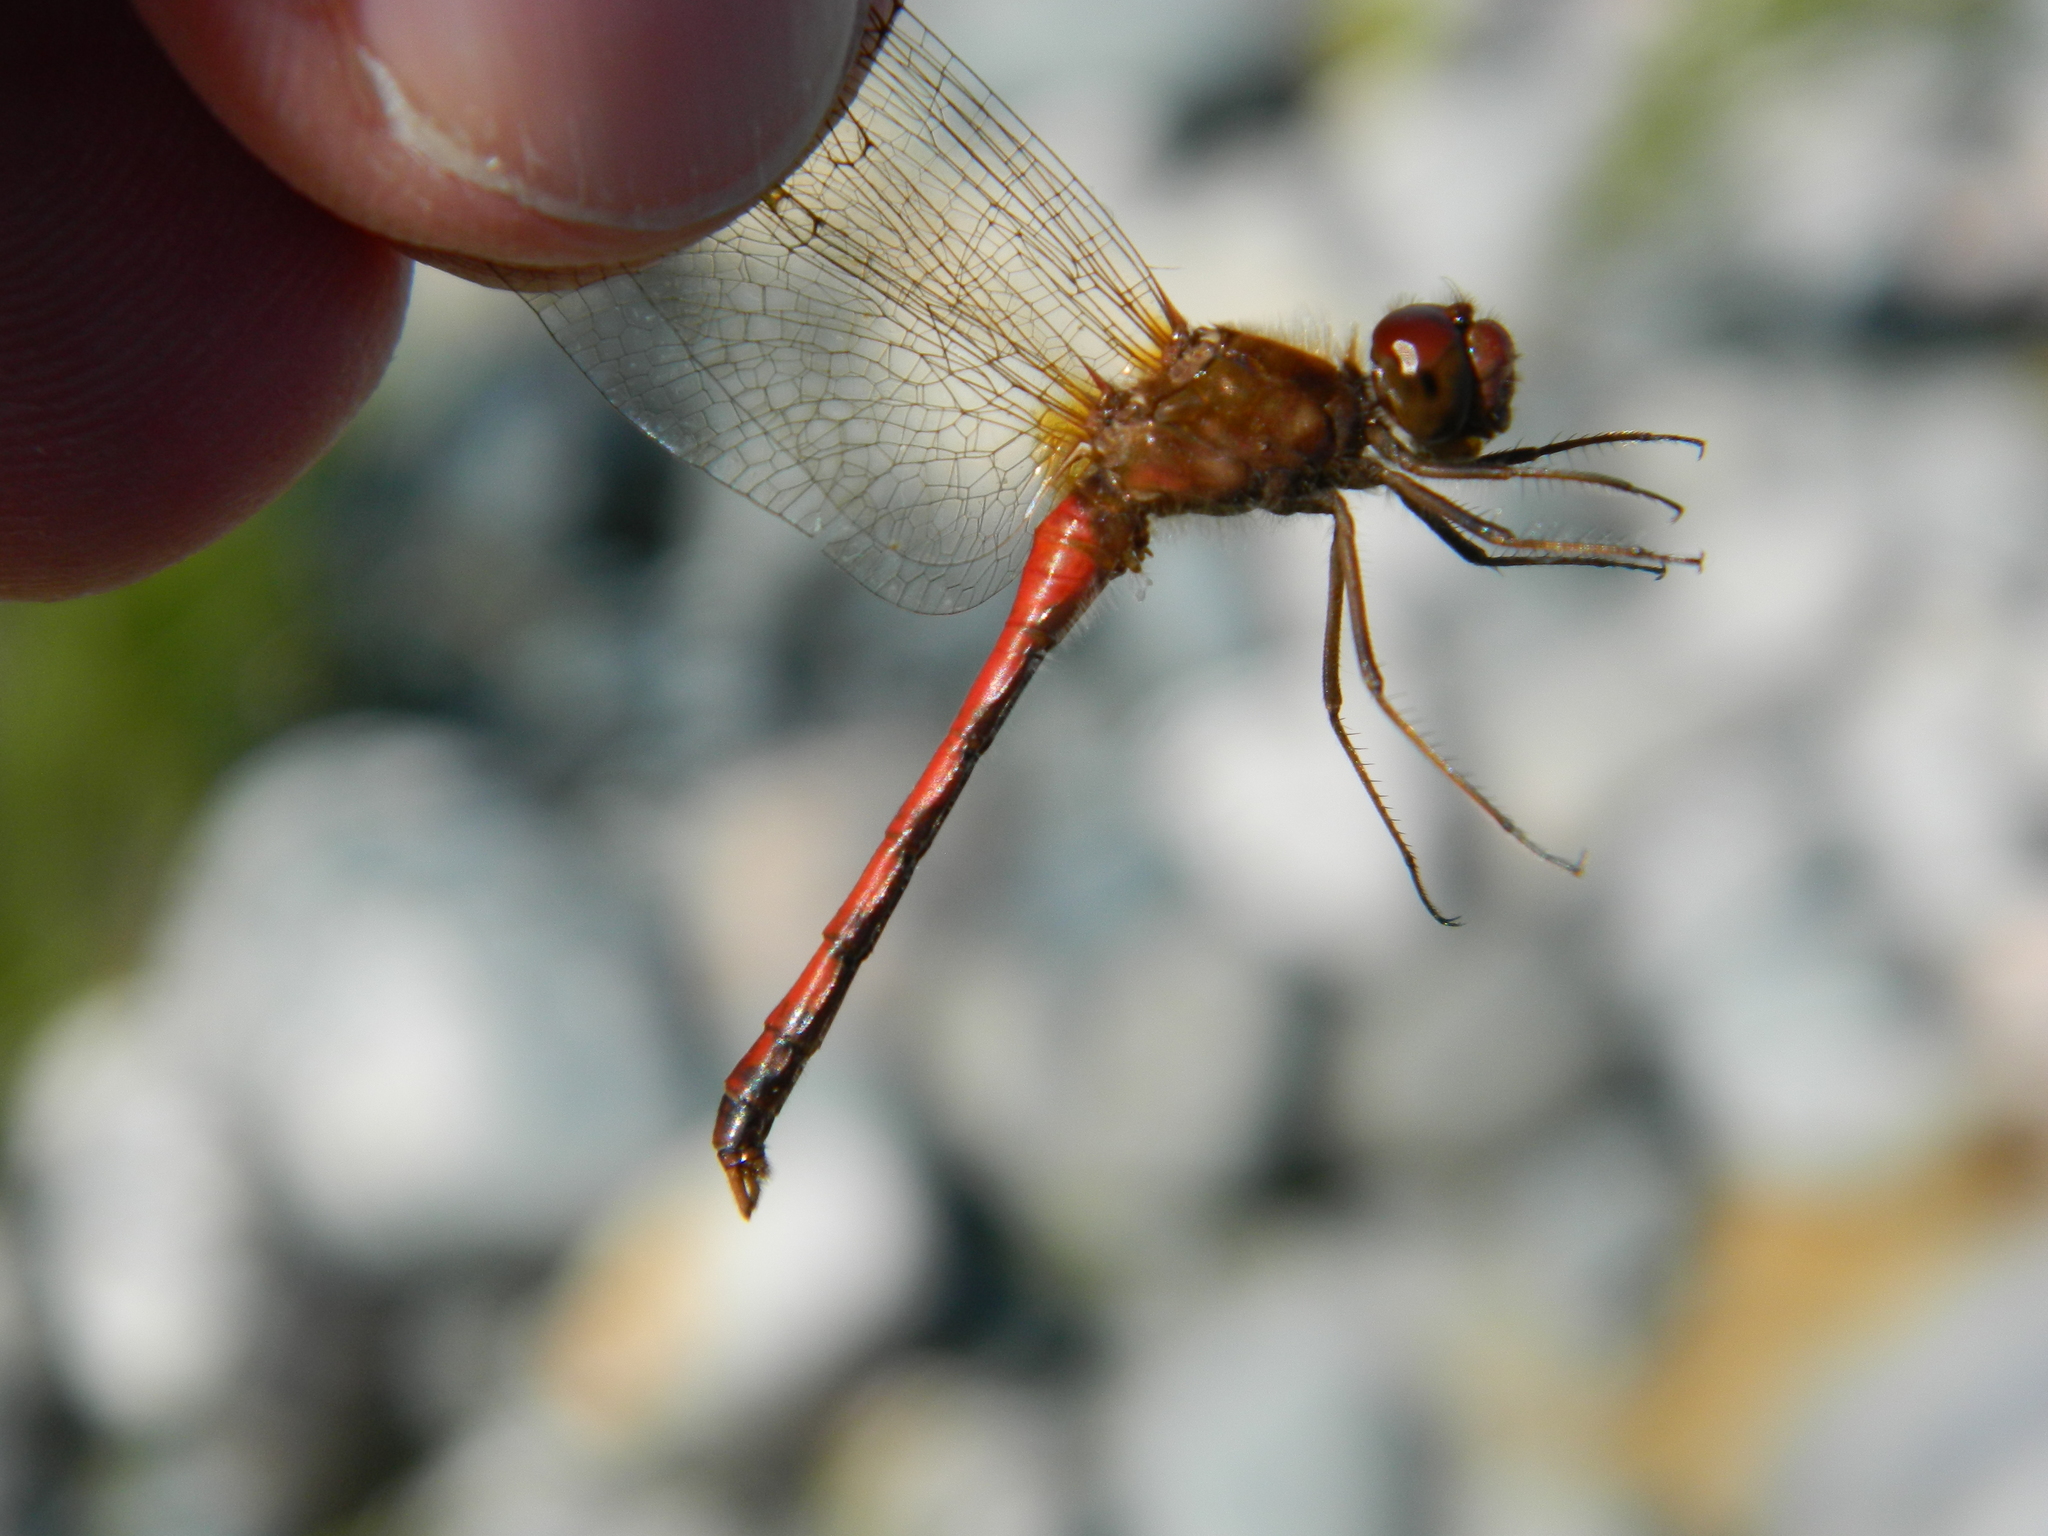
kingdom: Animalia
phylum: Arthropoda
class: Insecta
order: Odonata
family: Libellulidae
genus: Sympetrum
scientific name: Sympetrum vicinum
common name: Autumn meadowhawk
